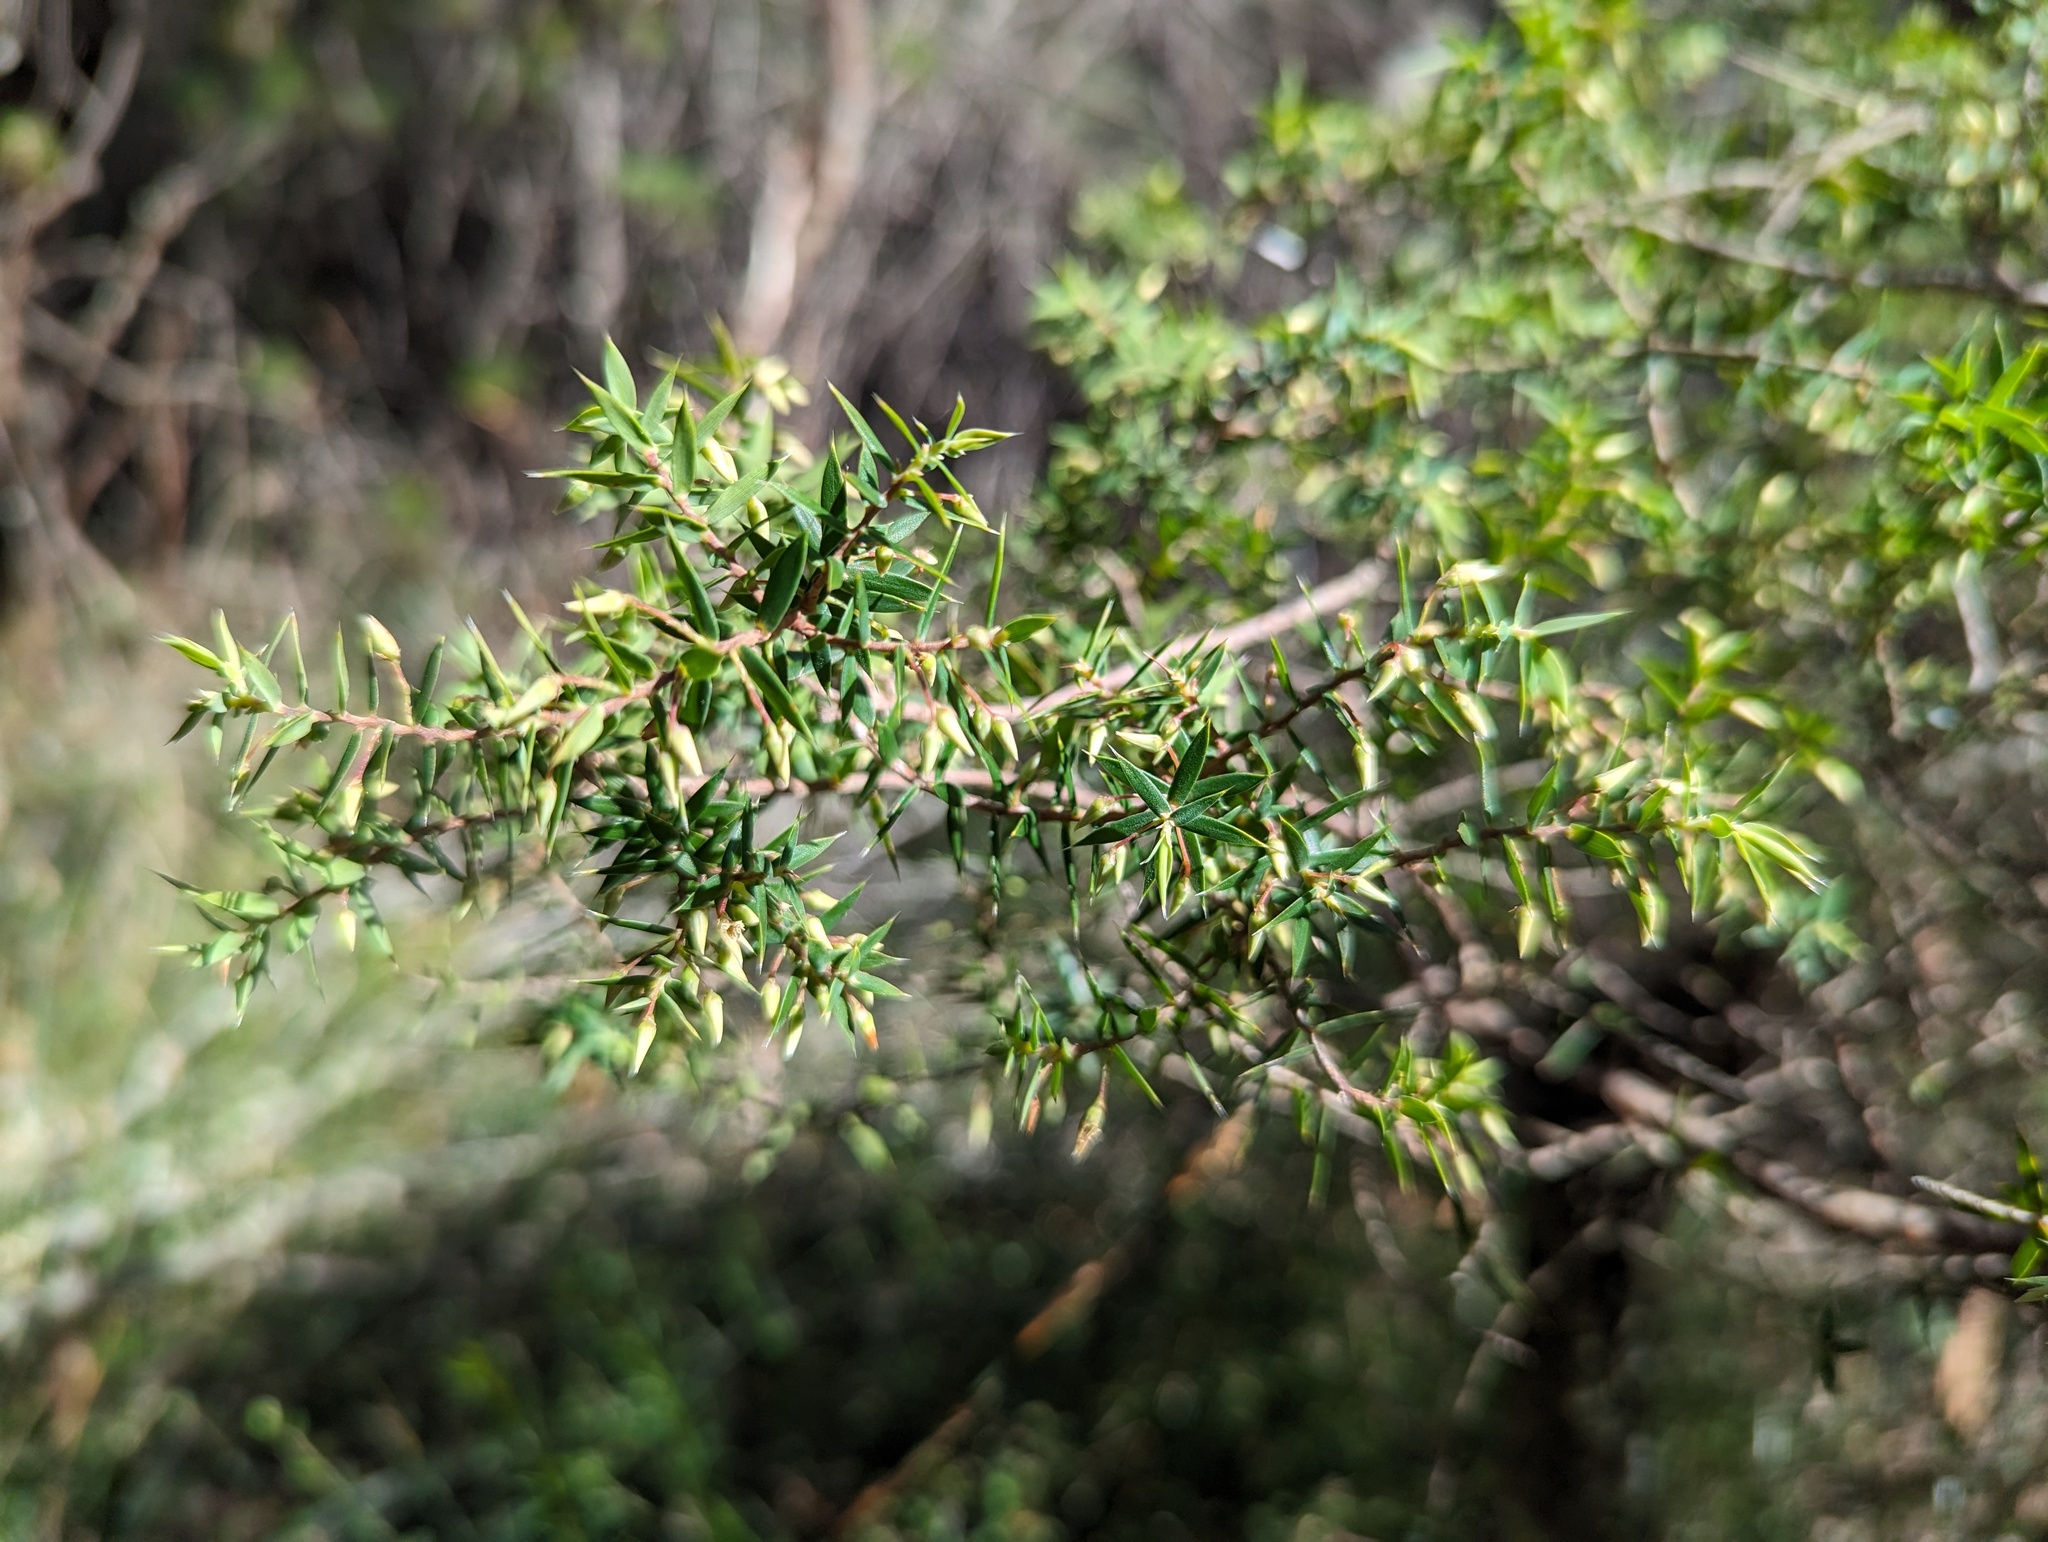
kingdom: Plantae
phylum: Tracheophyta
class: Magnoliopsida
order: Ericales
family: Ericaceae
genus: Styphelia
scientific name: Styphelia setigera
